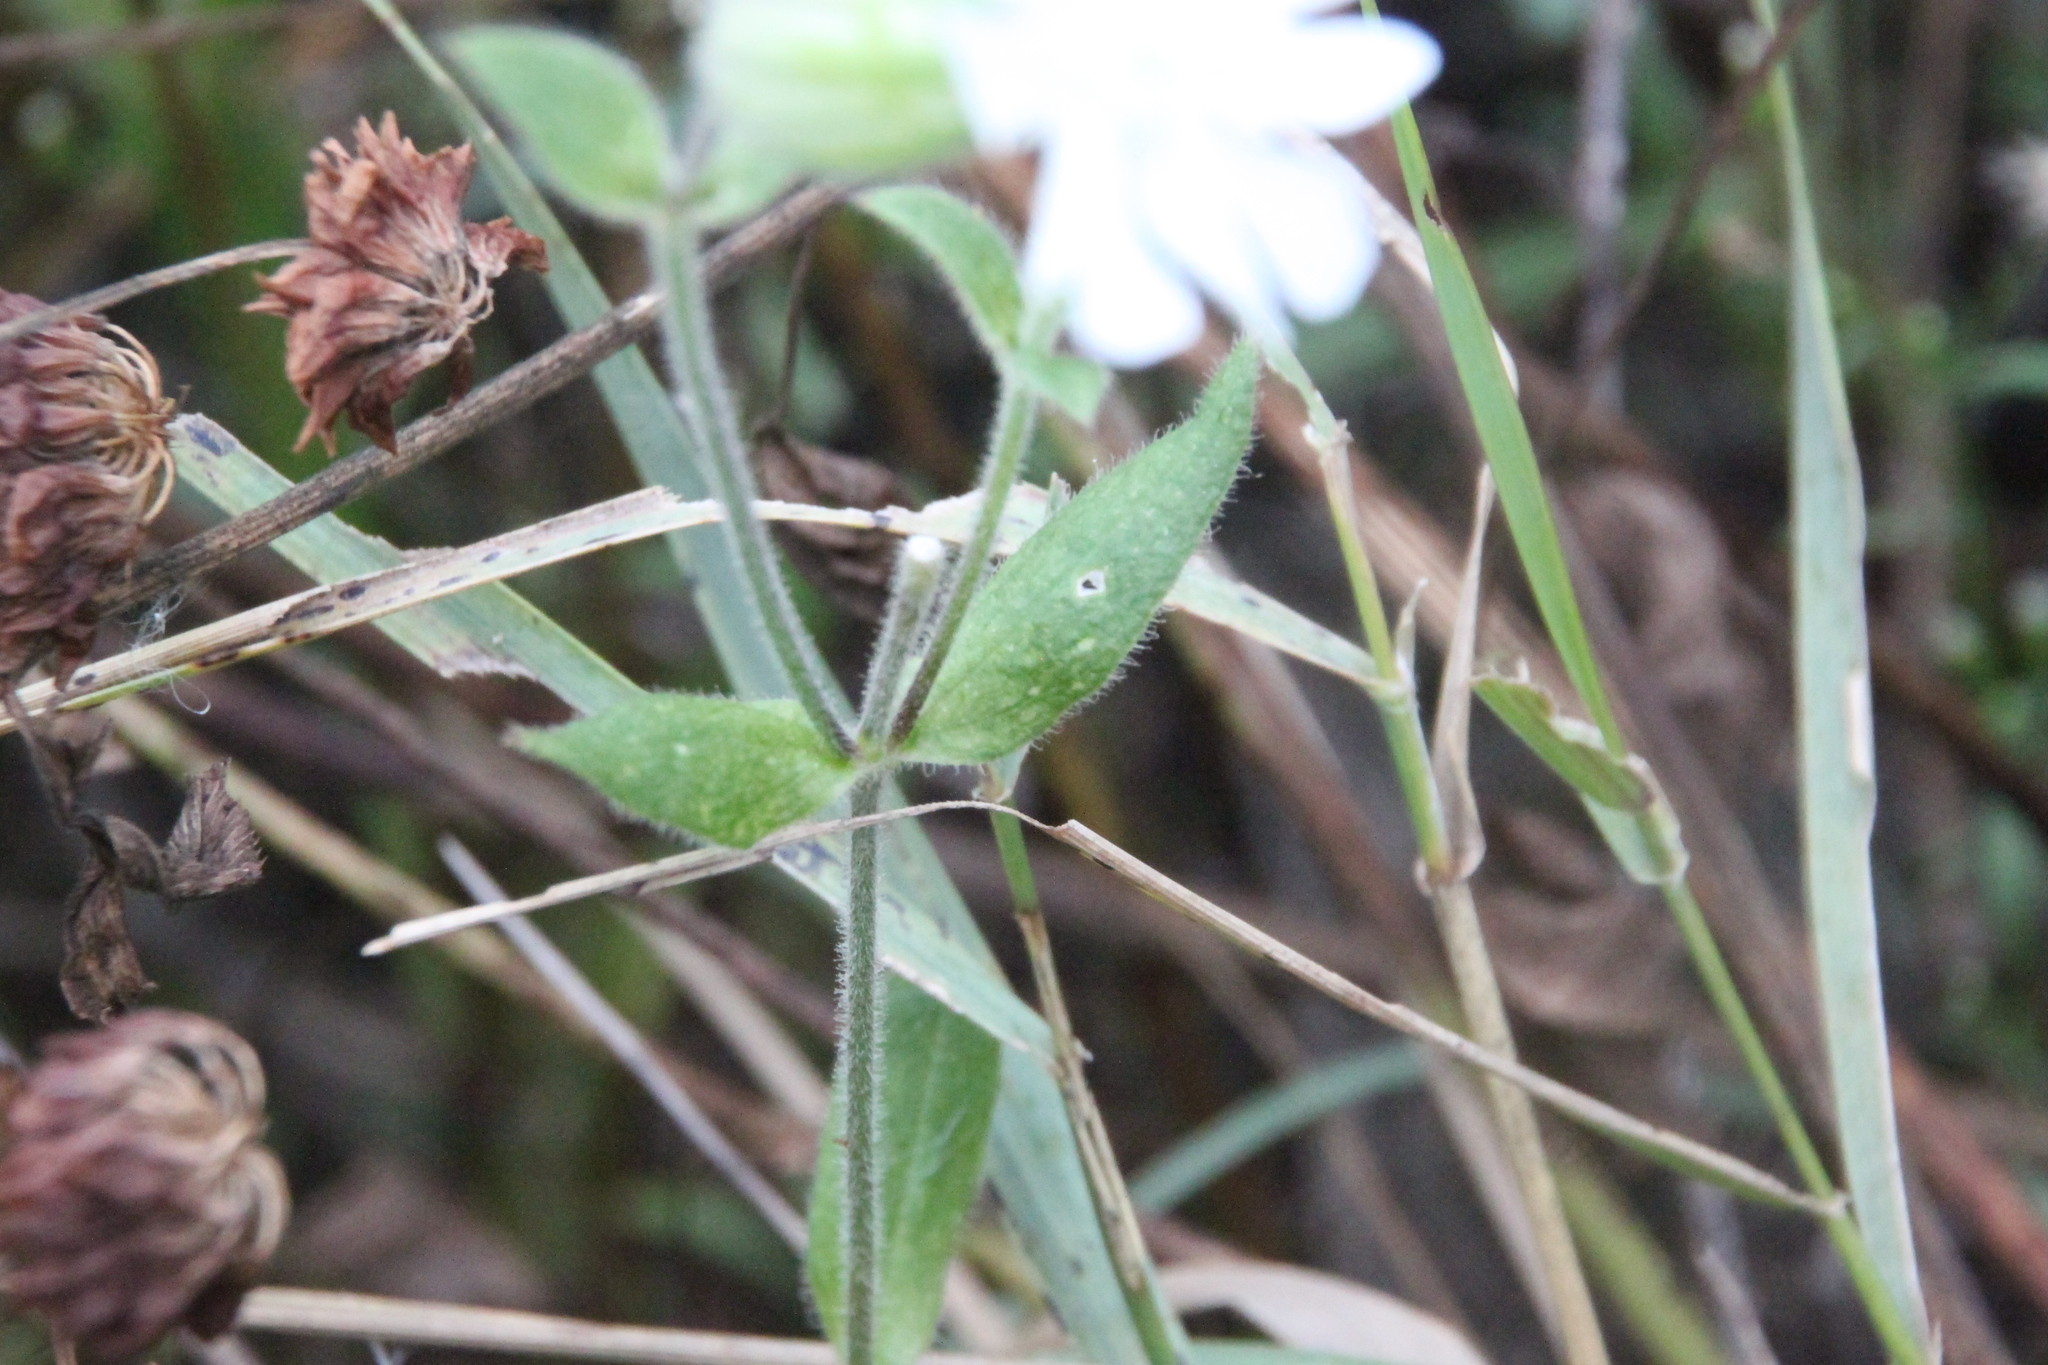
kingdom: Plantae
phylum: Tracheophyta
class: Magnoliopsida
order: Caryophyllales
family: Caryophyllaceae
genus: Silene
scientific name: Silene latifolia
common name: White campion
